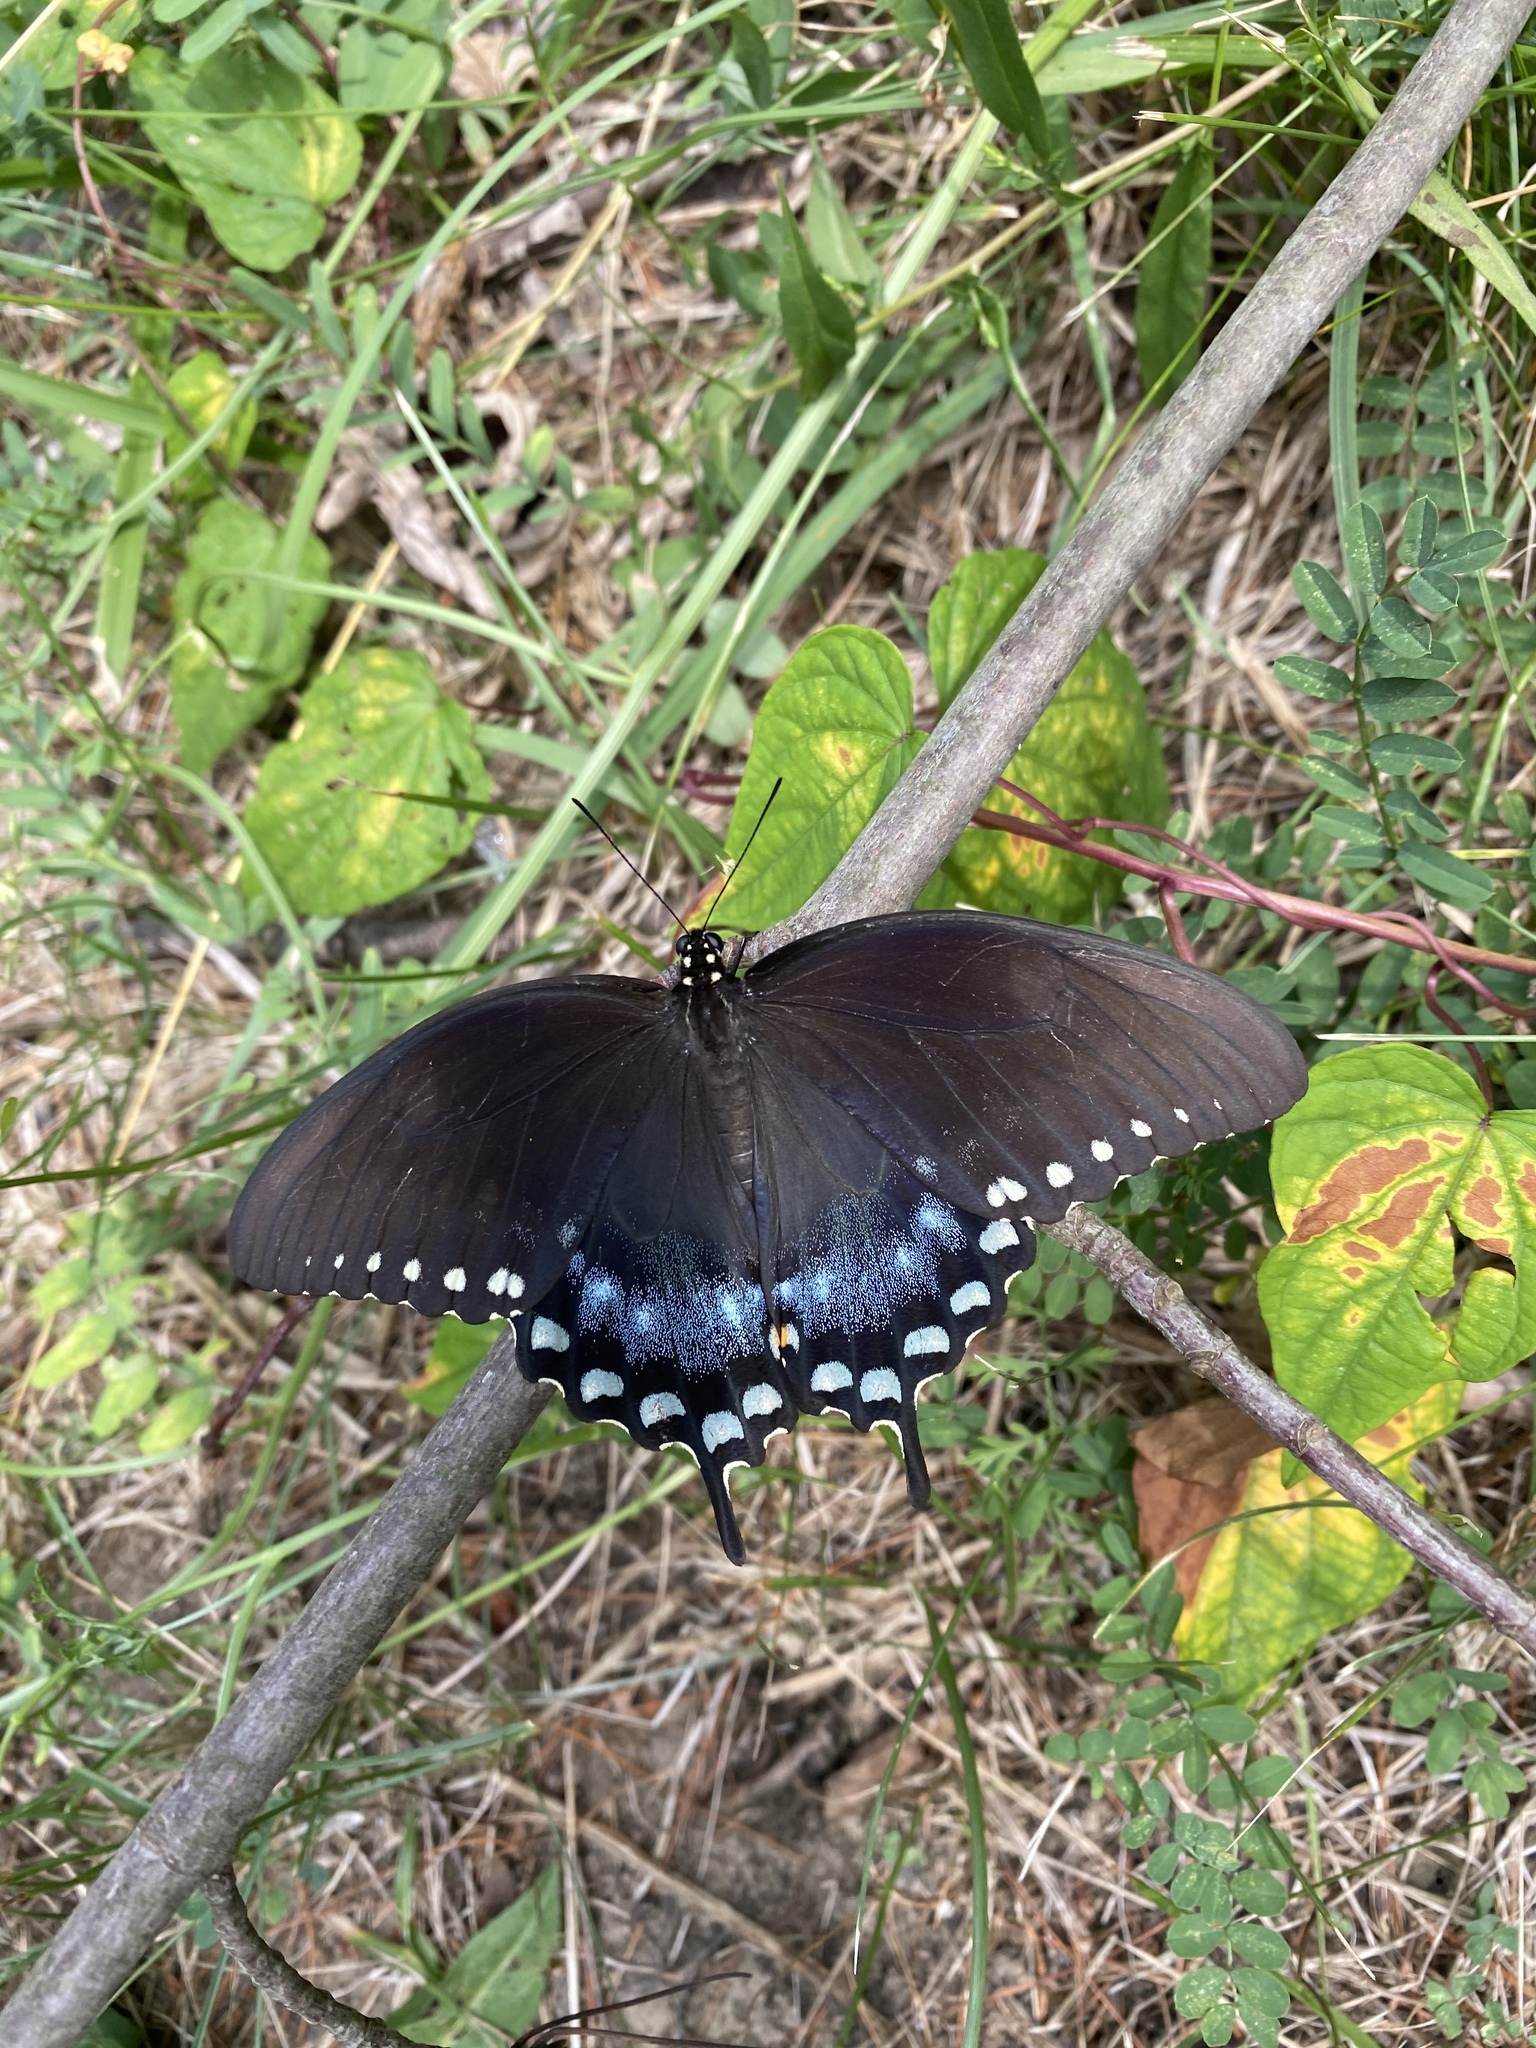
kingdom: Animalia
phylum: Arthropoda
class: Insecta
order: Lepidoptera
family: Papilionidae
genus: Papilio
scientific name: Papilio troilus
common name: Spicebush swallowtail
